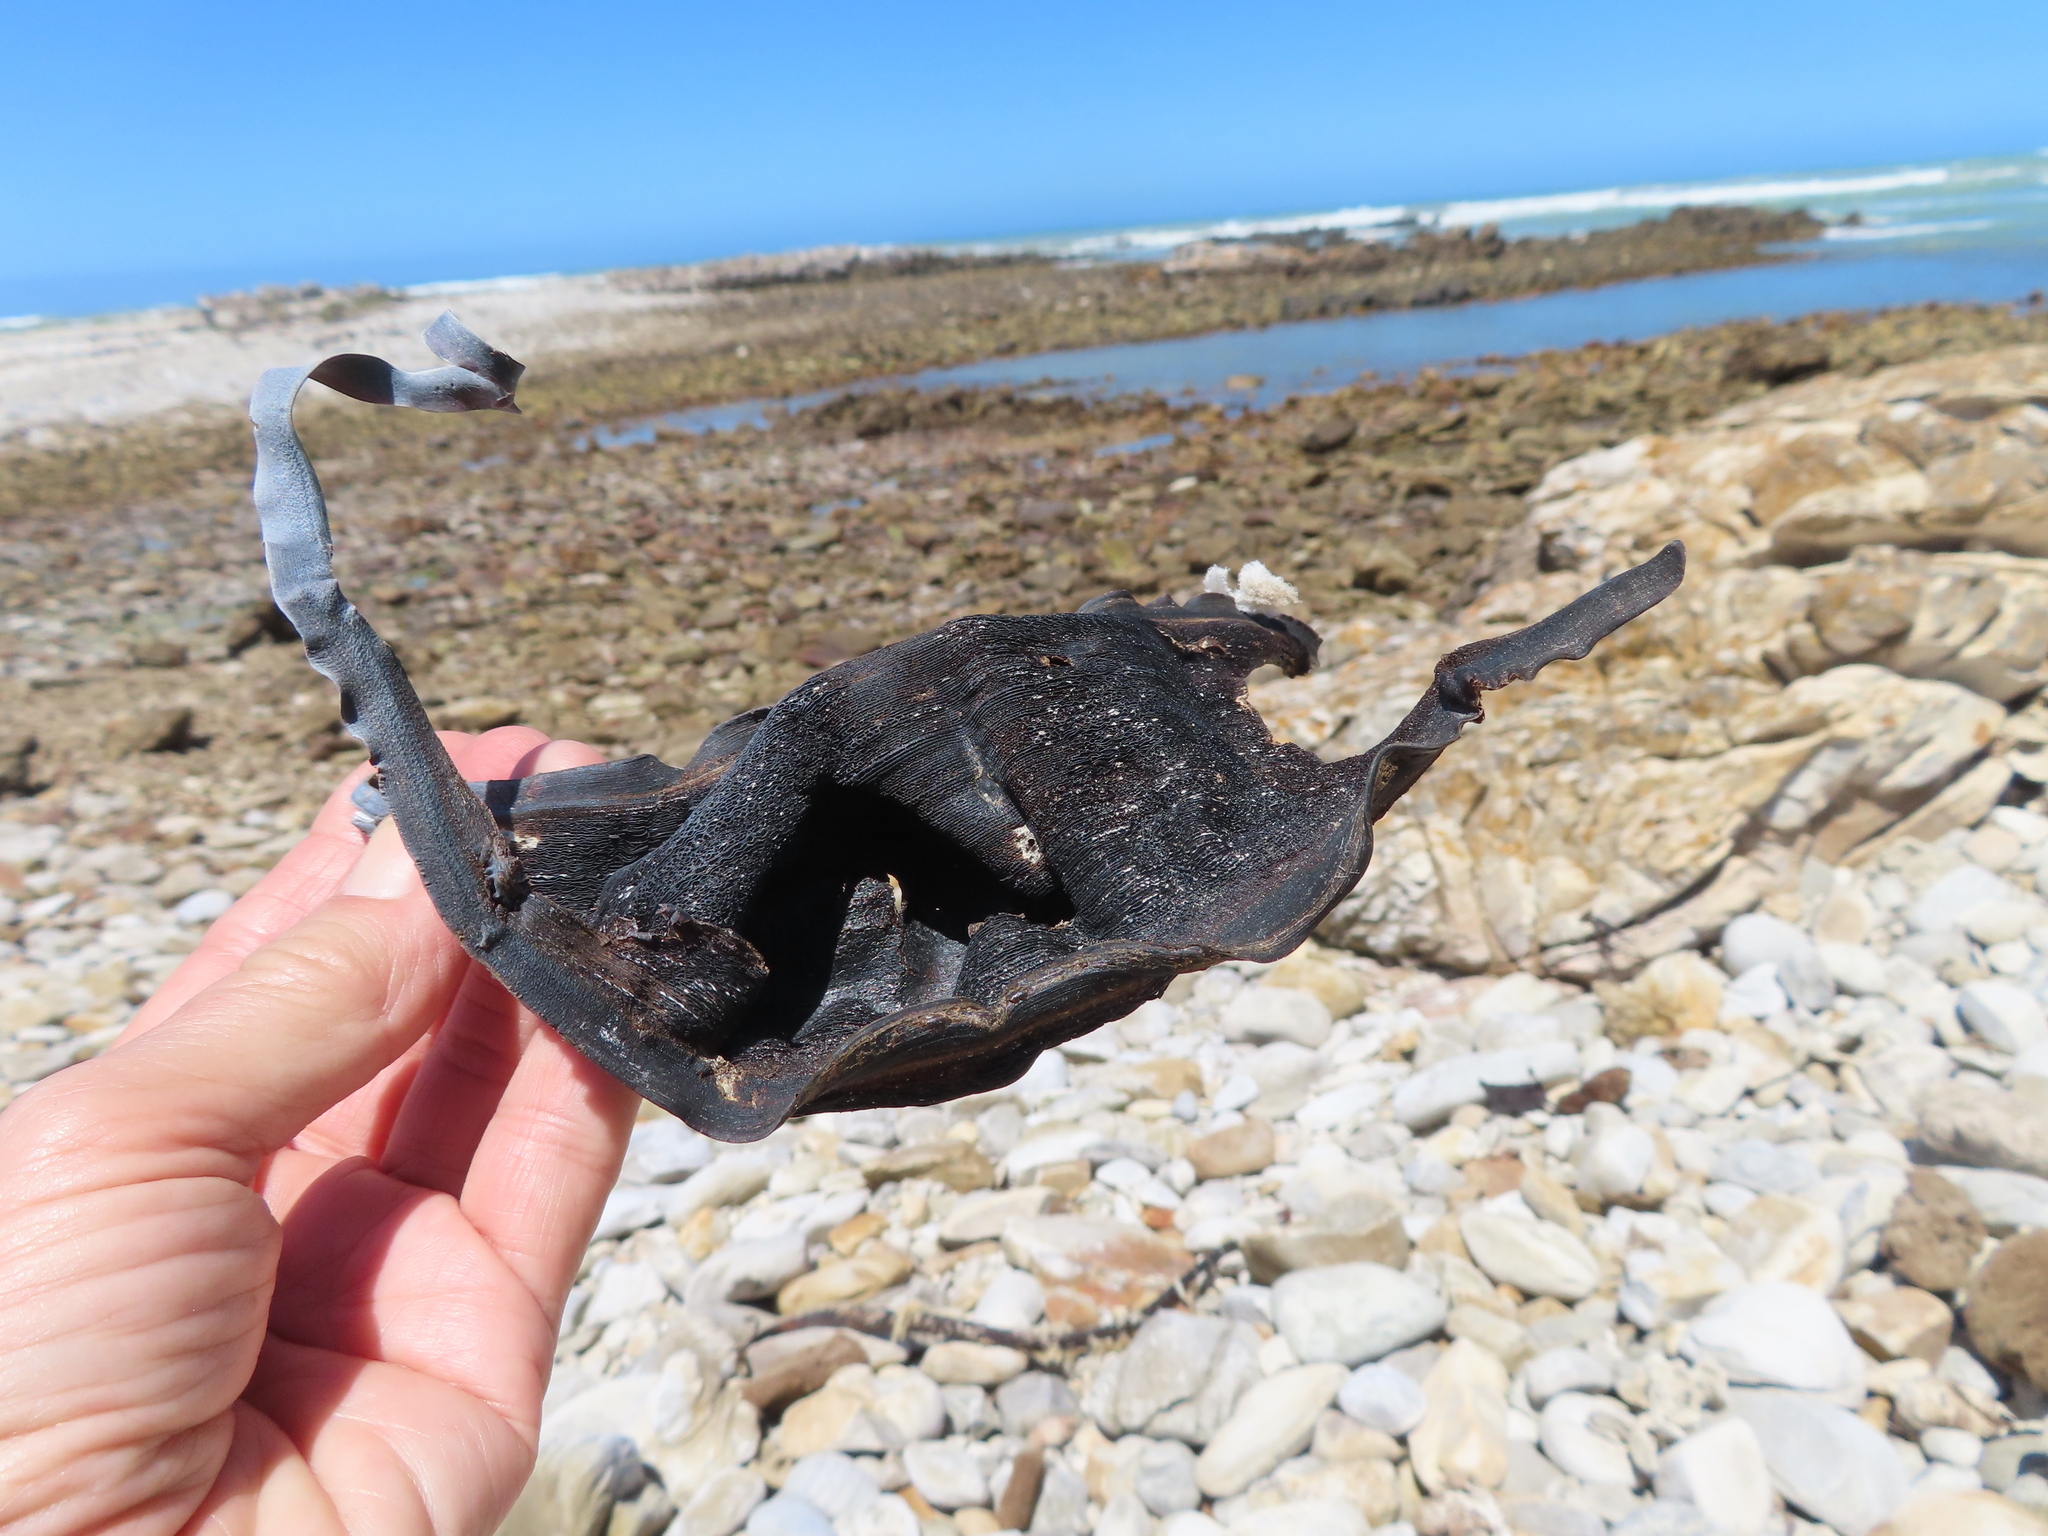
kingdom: Animalia
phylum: Chordata
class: Elasmobranchii
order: Rajiformes
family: Rajidae
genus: Rostroraja
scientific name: Rostroraja alba
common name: White skate
